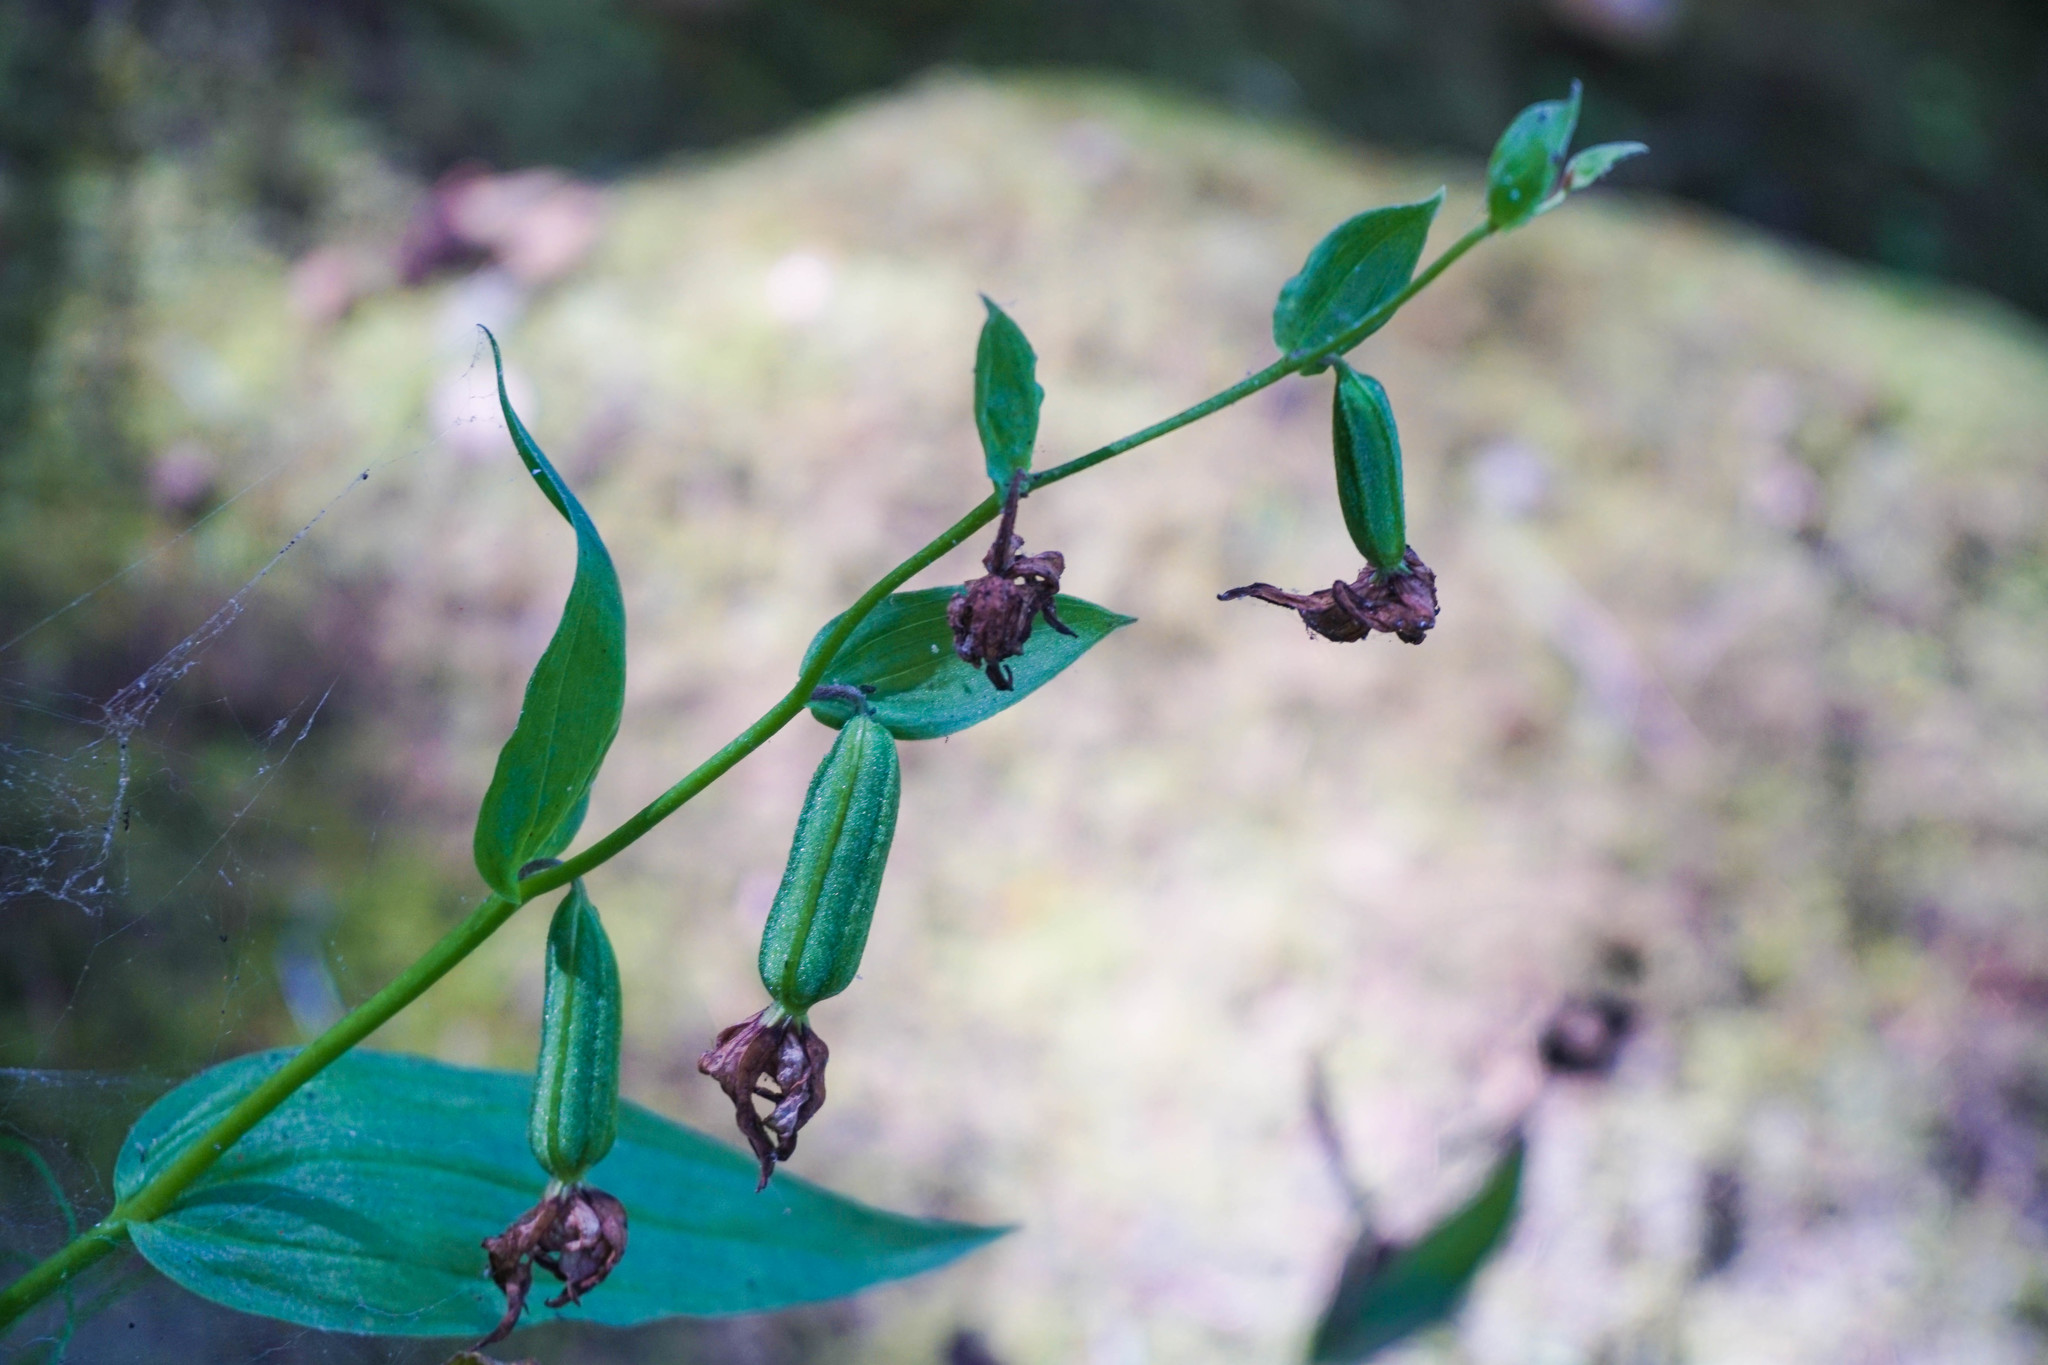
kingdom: Plantae
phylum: Tracheophyta
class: Liliopsida
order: Asparagales
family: Orchidaceae
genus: Epipactis
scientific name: Epipactis gigantea
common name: Chatterbox
